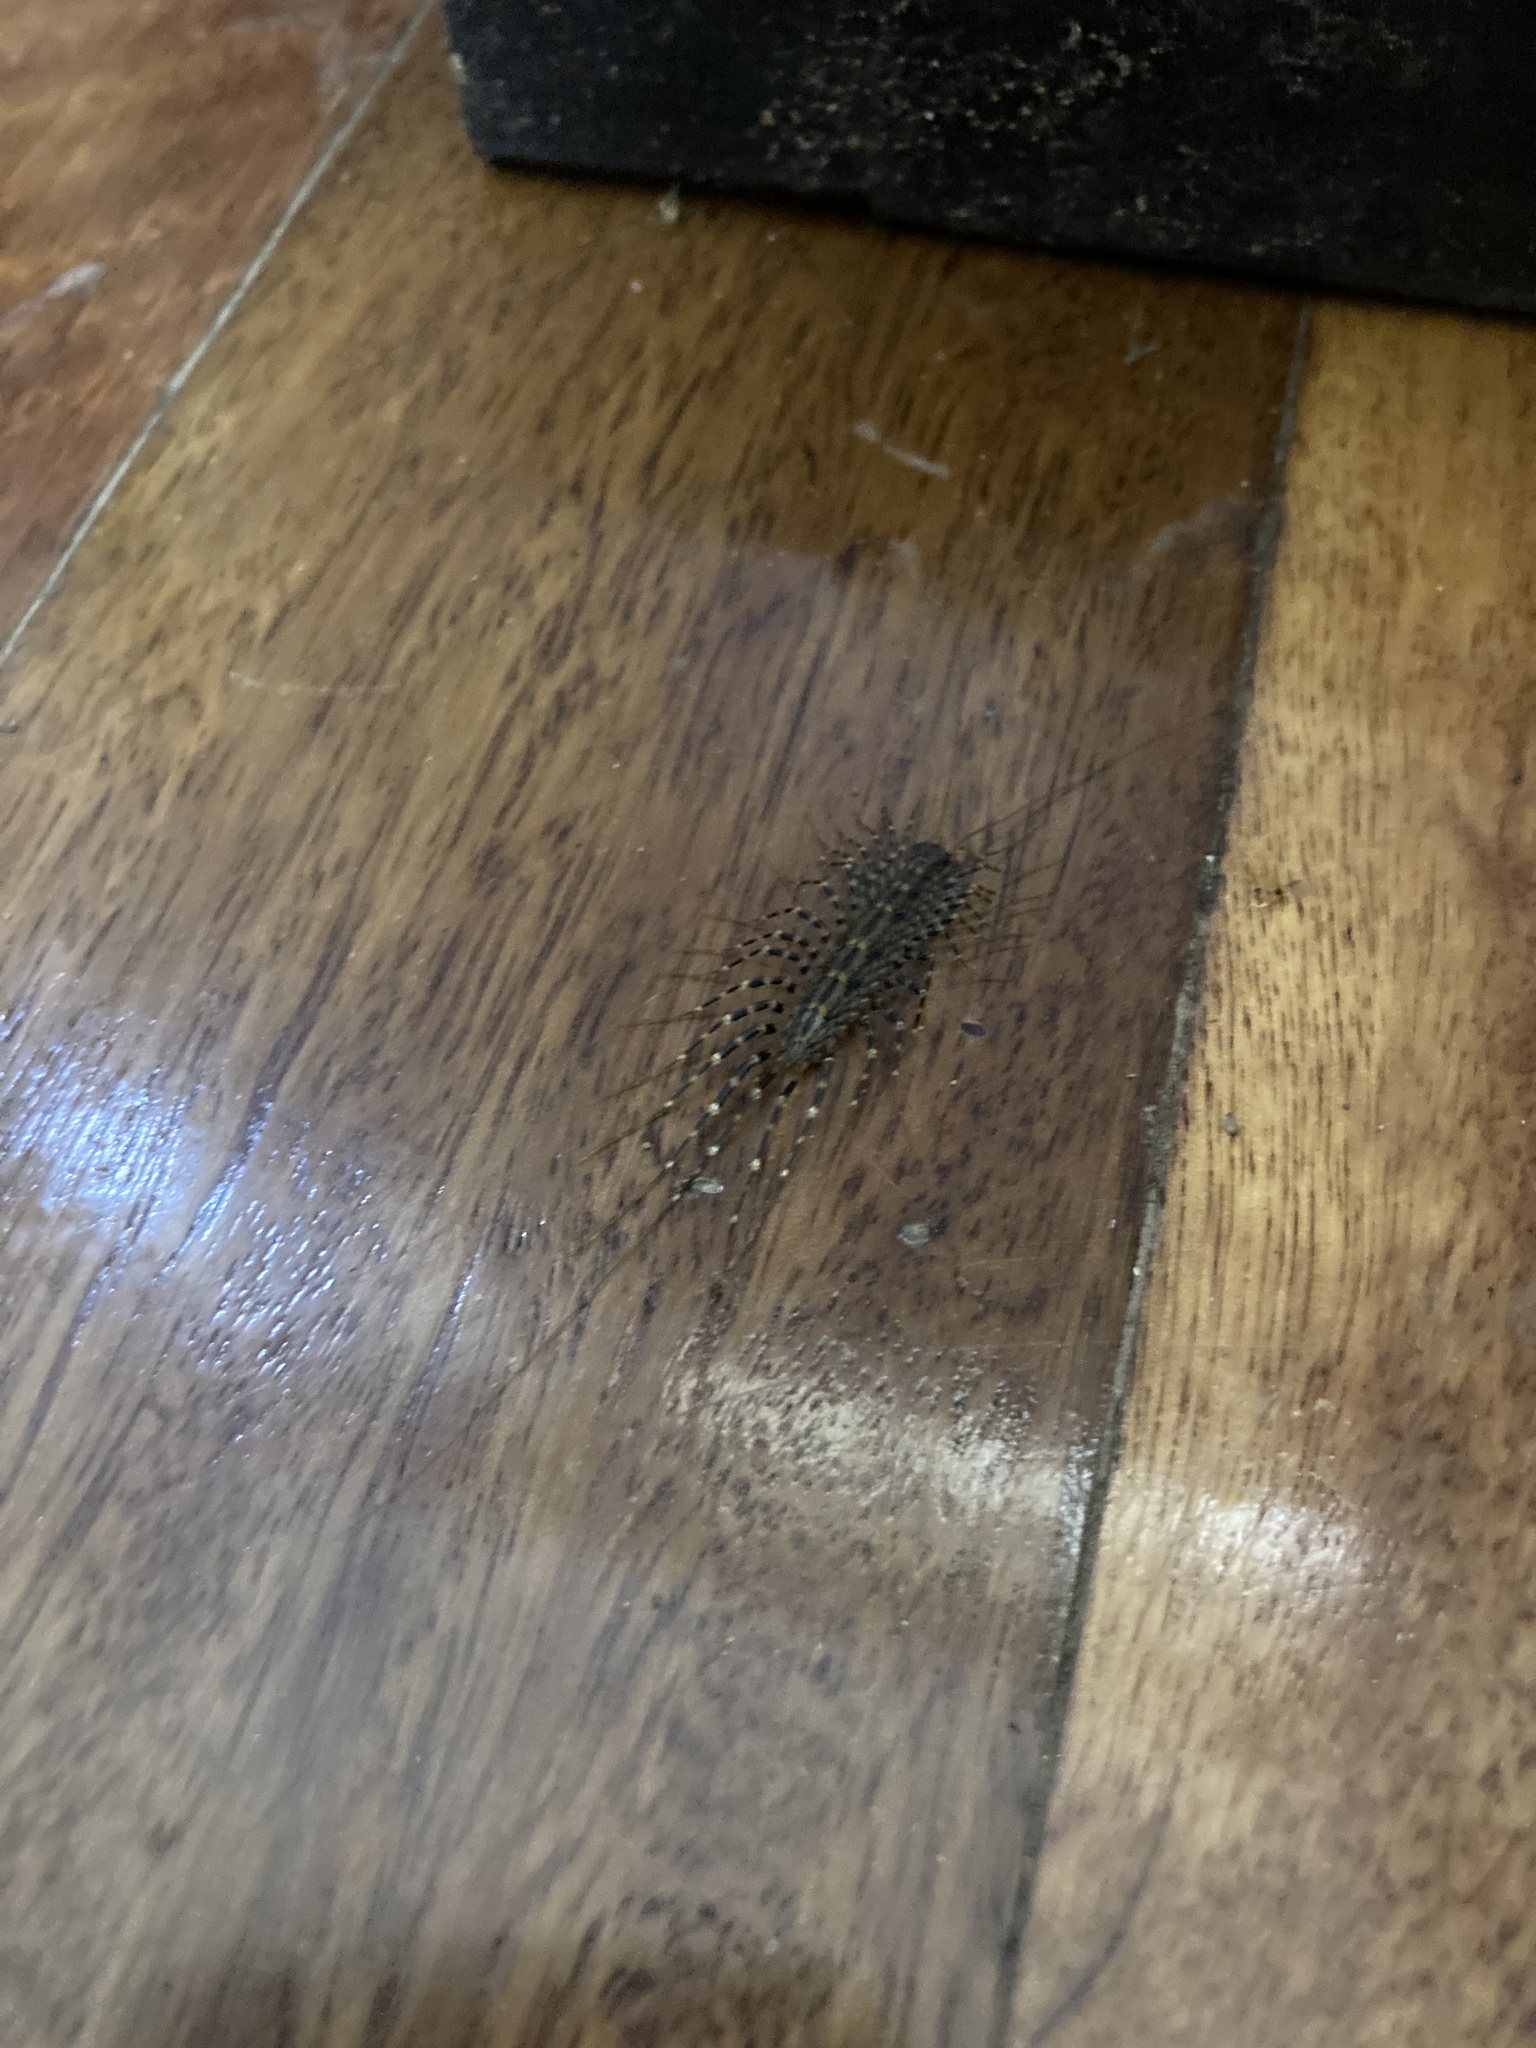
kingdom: Animalia
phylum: Arthropoda
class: Chilopoda
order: Scutigeromorpha
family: Scutigeridae
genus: Allothereua
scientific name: Allothereua maculata
